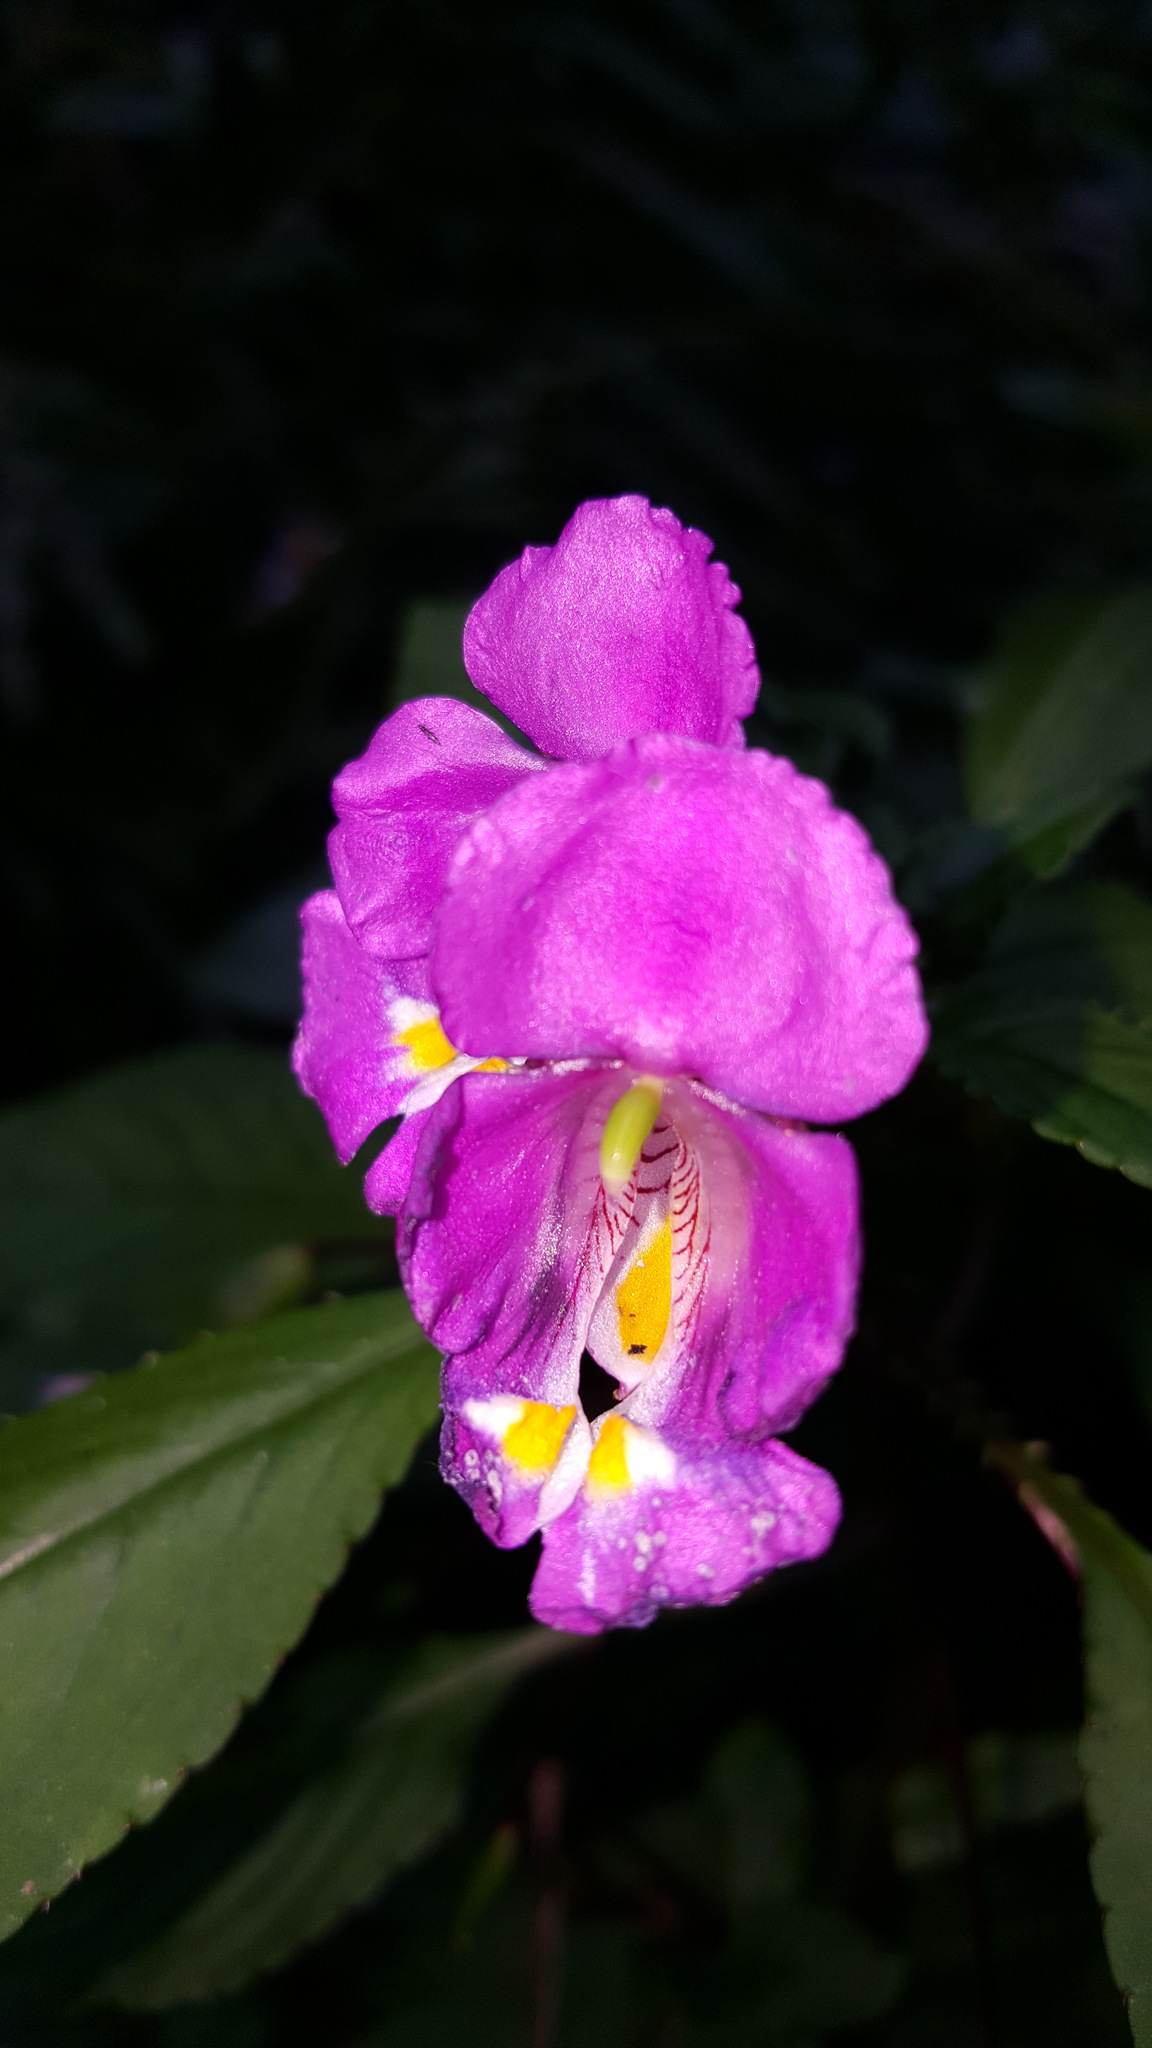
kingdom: Plantae
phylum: Tracheophyta
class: Magnoliopsida
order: Ericales
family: Balsaminaceae
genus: Impatiens
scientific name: Impatiens bisaccata
